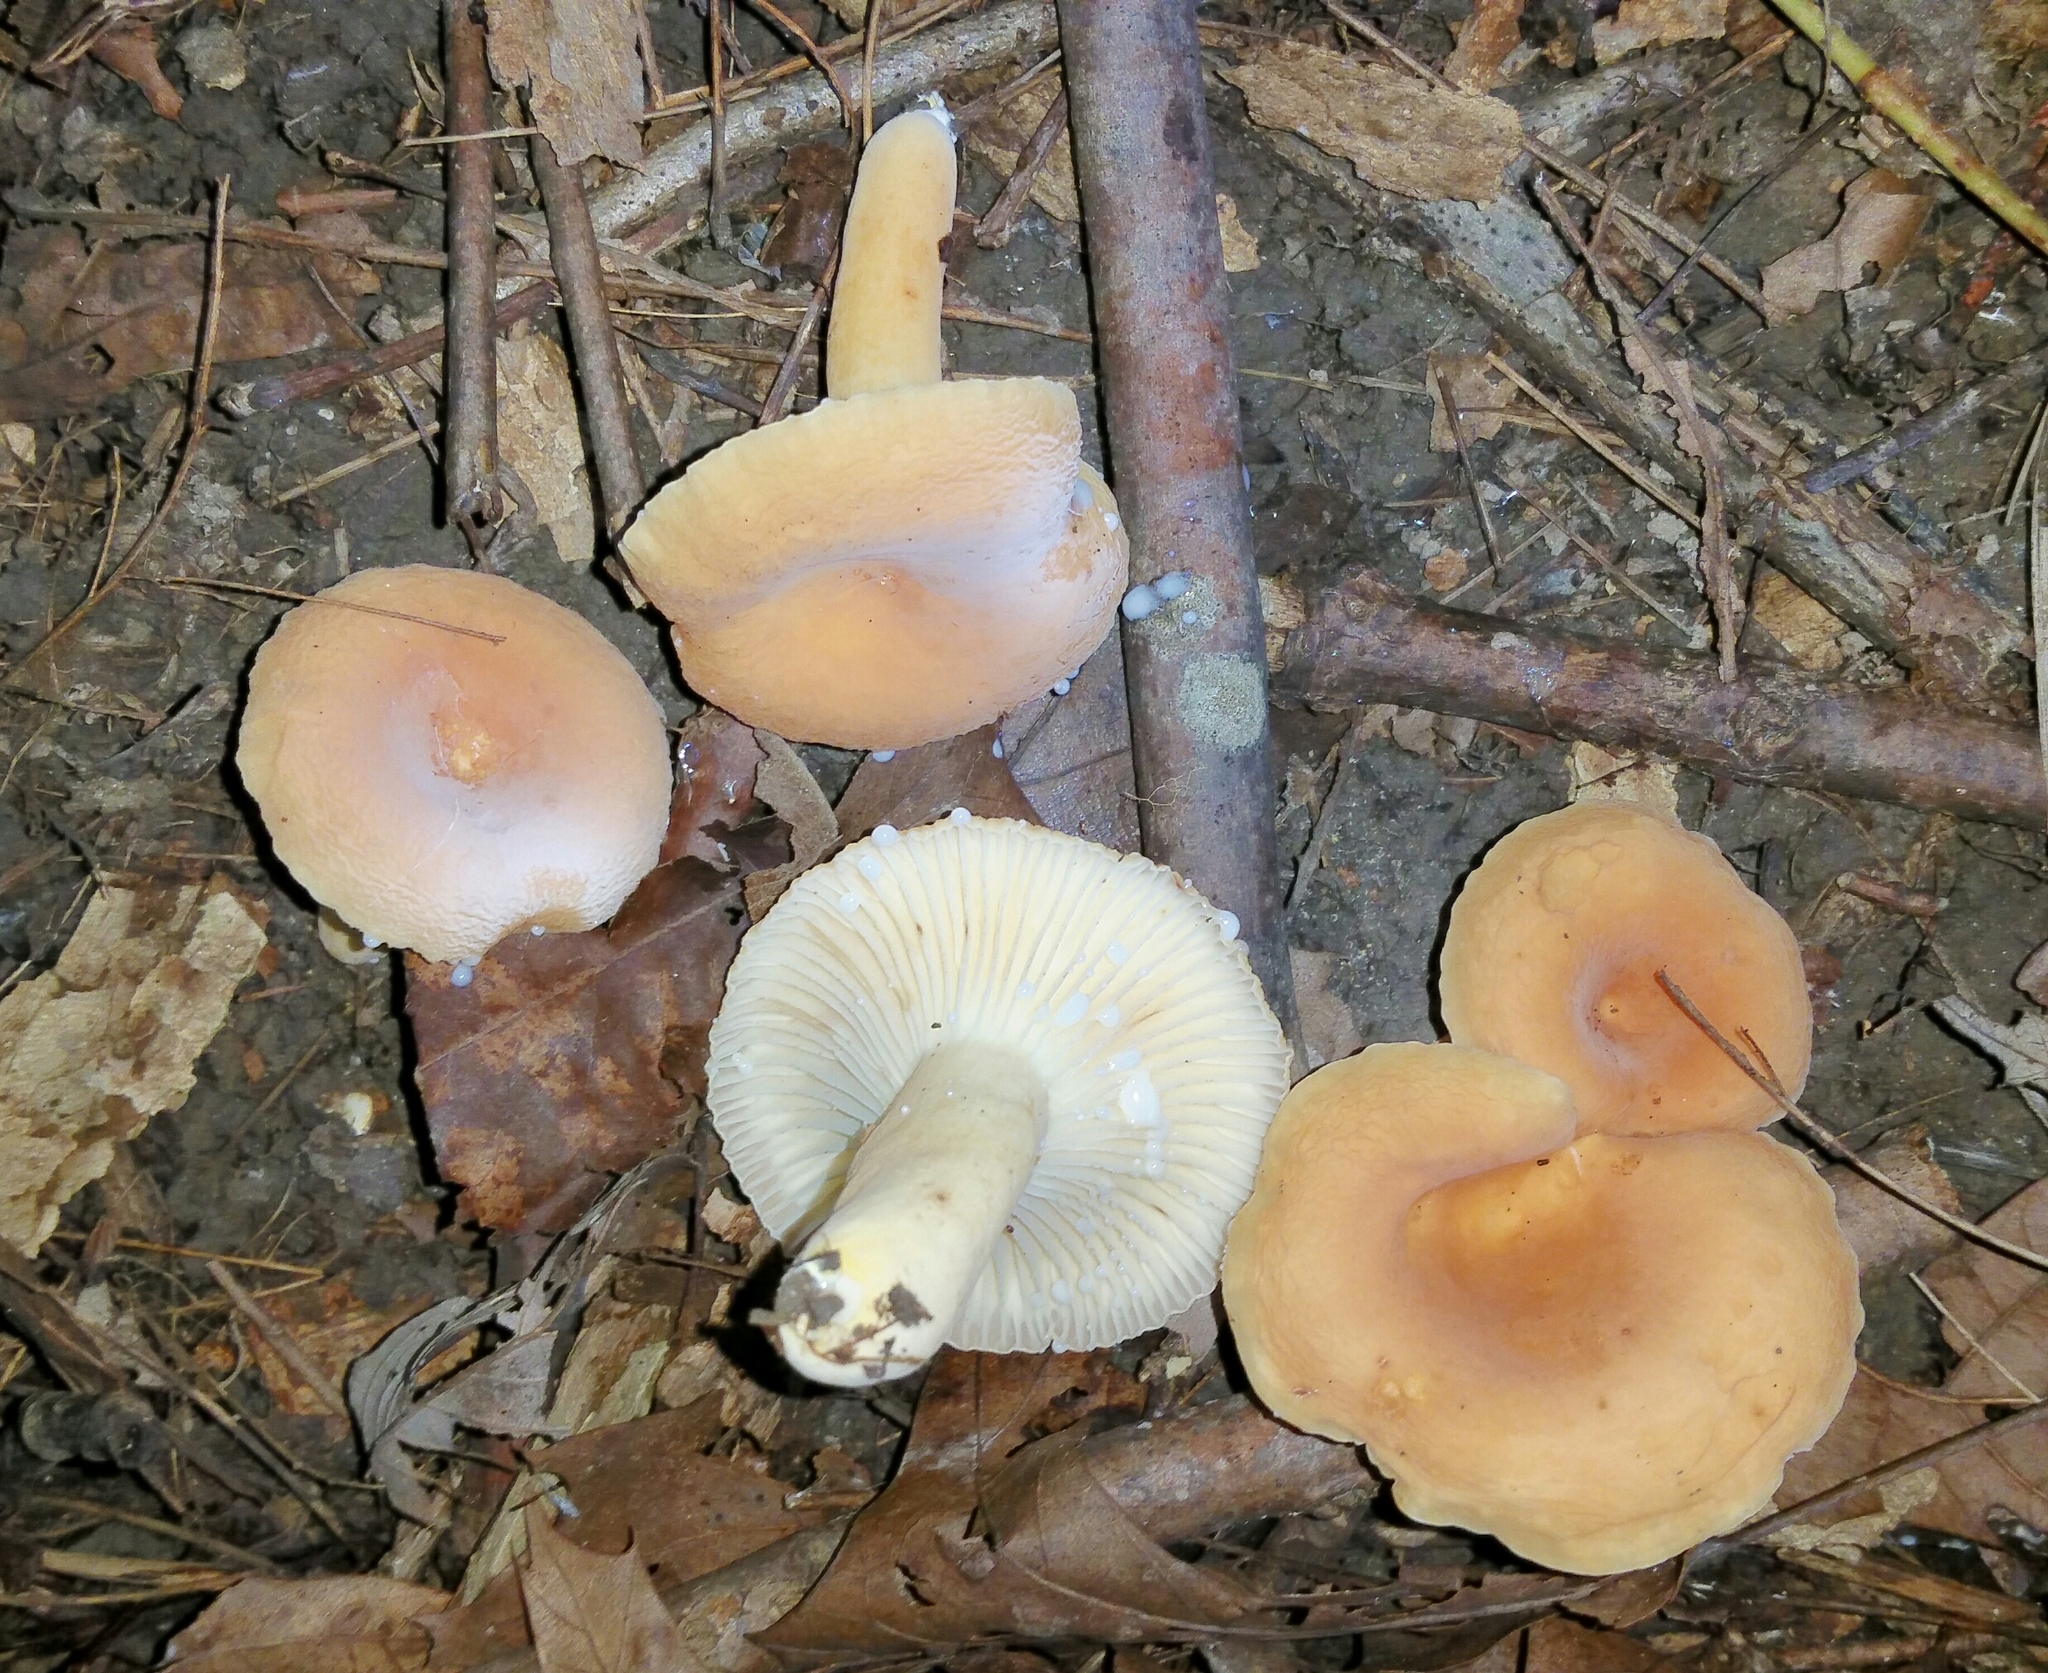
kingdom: Fungi
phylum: Basidiomycota
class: Agaricomycetes
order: Russulales
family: Russulaceae
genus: Lactarius
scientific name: Lactarius hygrophoroides
